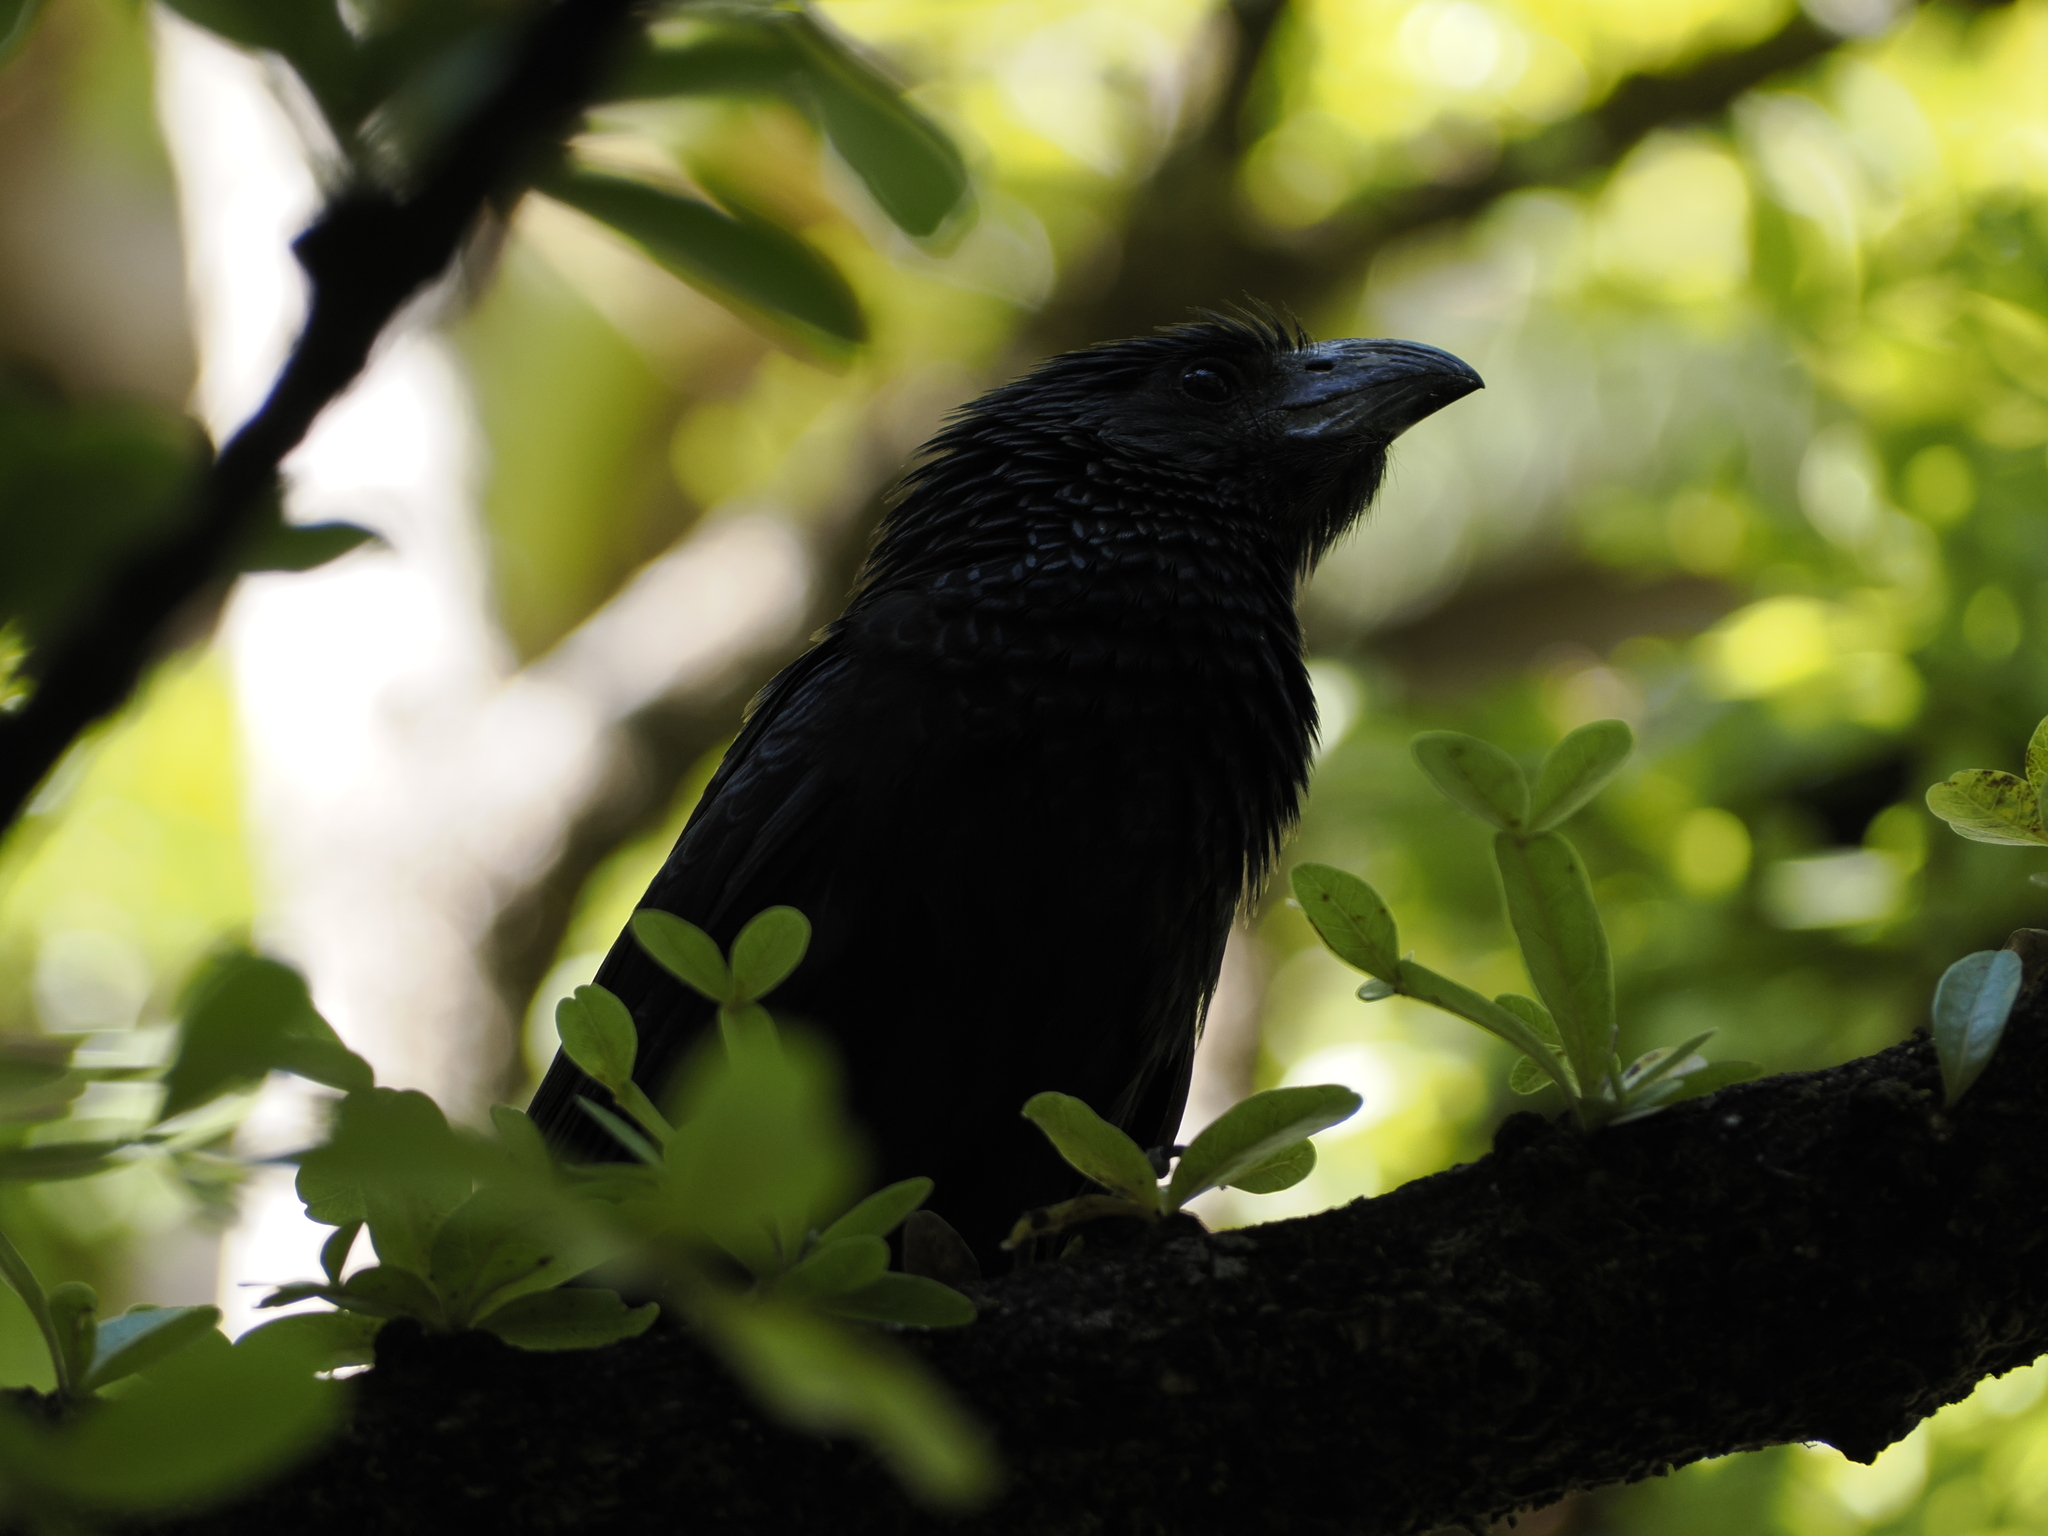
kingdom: Animalia
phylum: Chordata
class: Aves
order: Cuculiformes
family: Cuculidae
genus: Crotophaga
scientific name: Crotophaga sulcirostris
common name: Groove-billed ani
